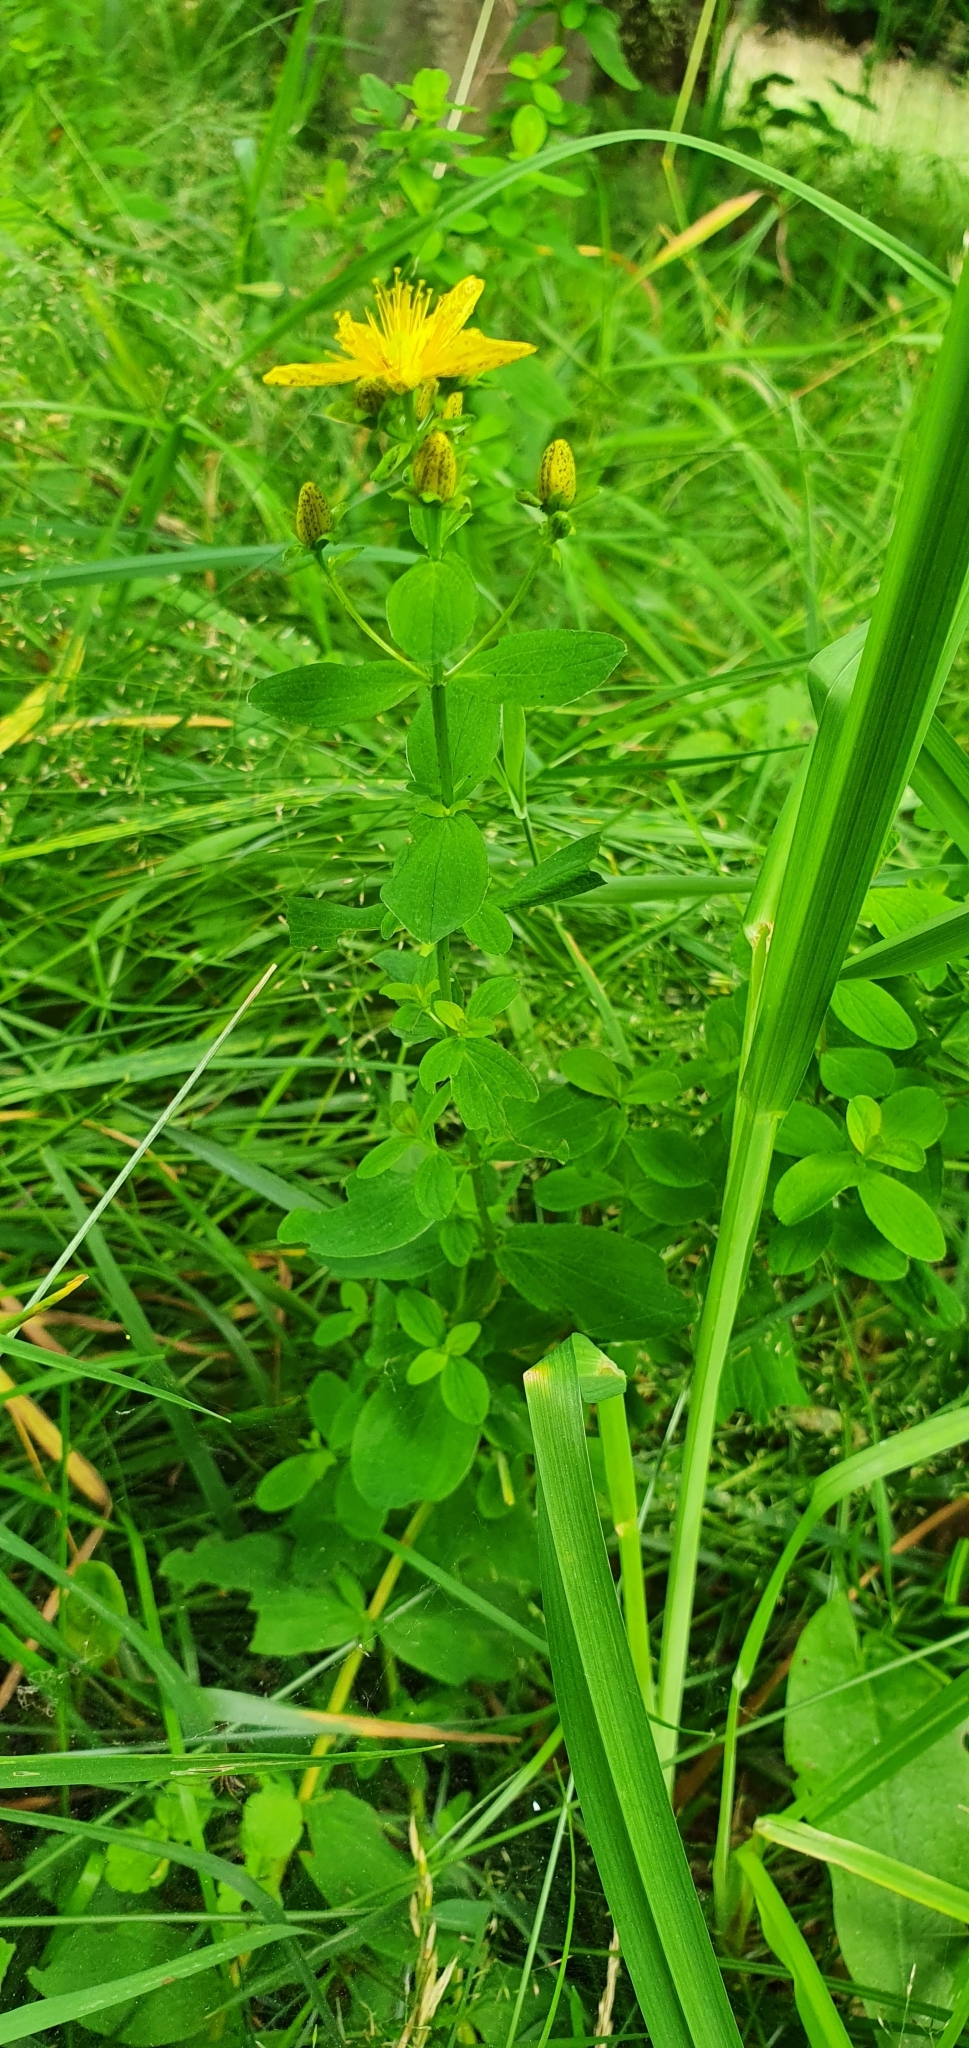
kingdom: Plantae
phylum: Tracheophyta
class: Magnoliopsida
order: Malpighiales
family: Hypericaceae
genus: Hypericum
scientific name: Hypericum maculatum
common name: Imperforate st. john's-wort
